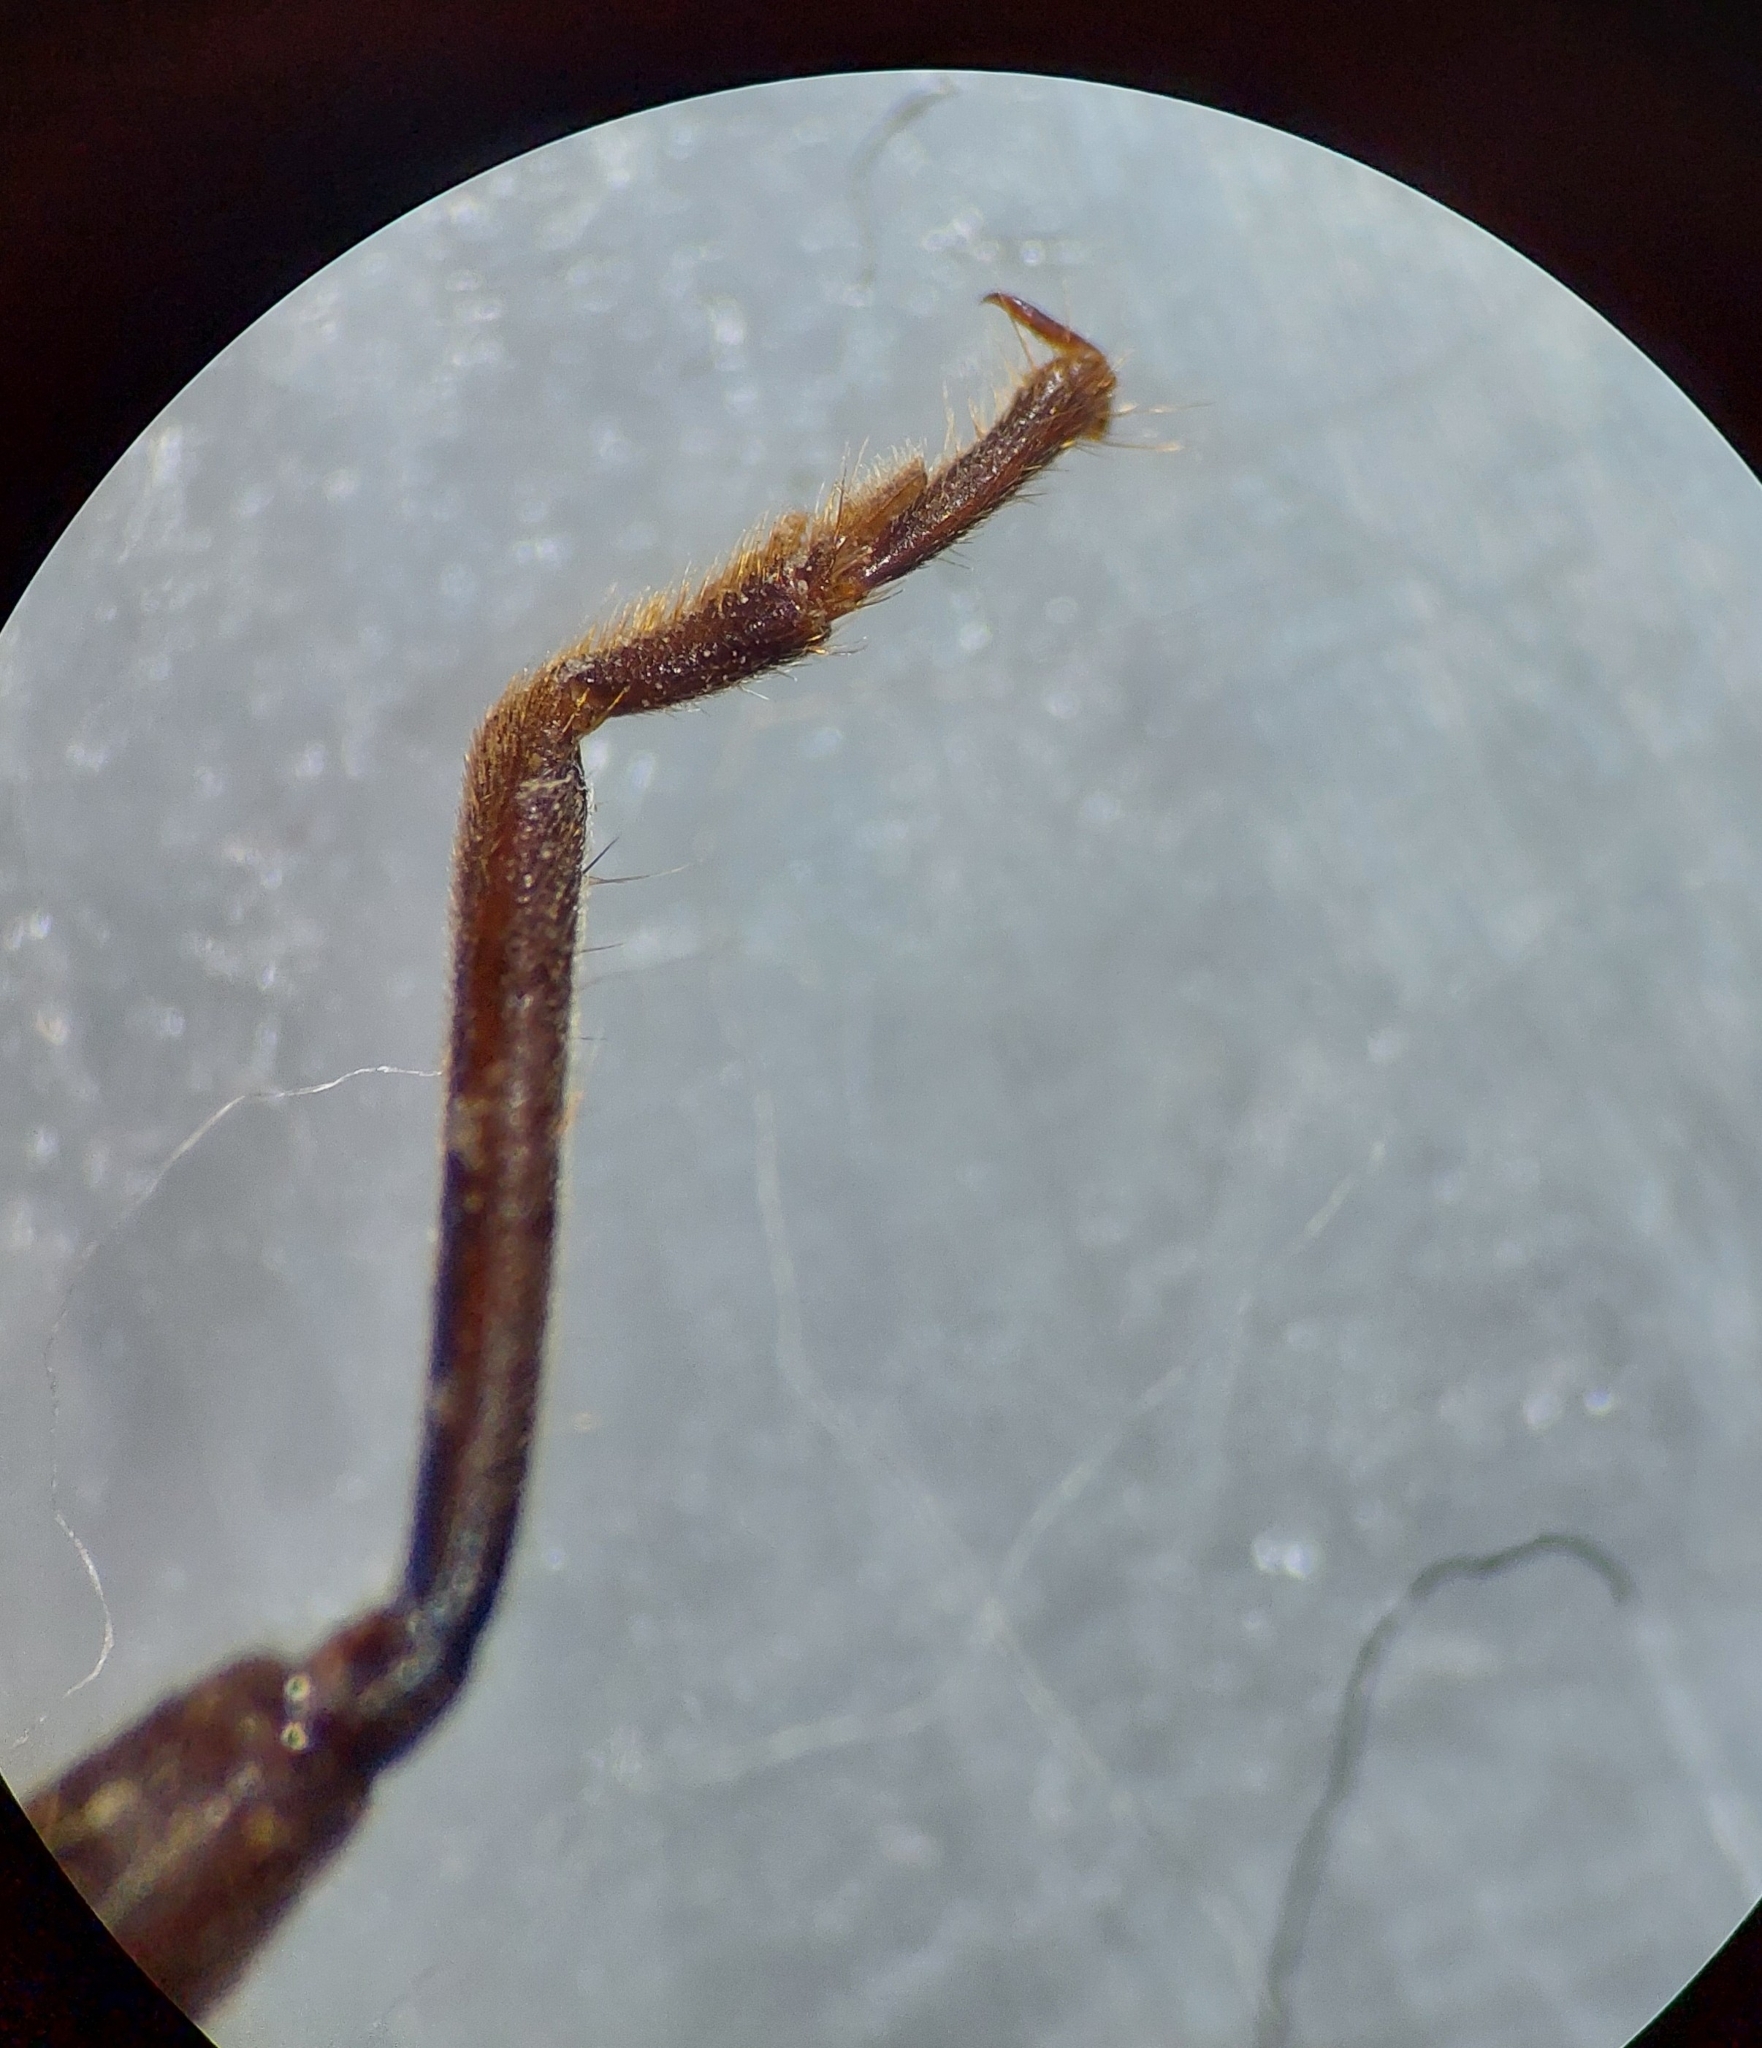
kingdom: Animalia
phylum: Arthropoda
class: Insecta
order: Dermaptera
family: Chelisochidae
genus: Adiathetus
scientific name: Adiathetus shelfordi
